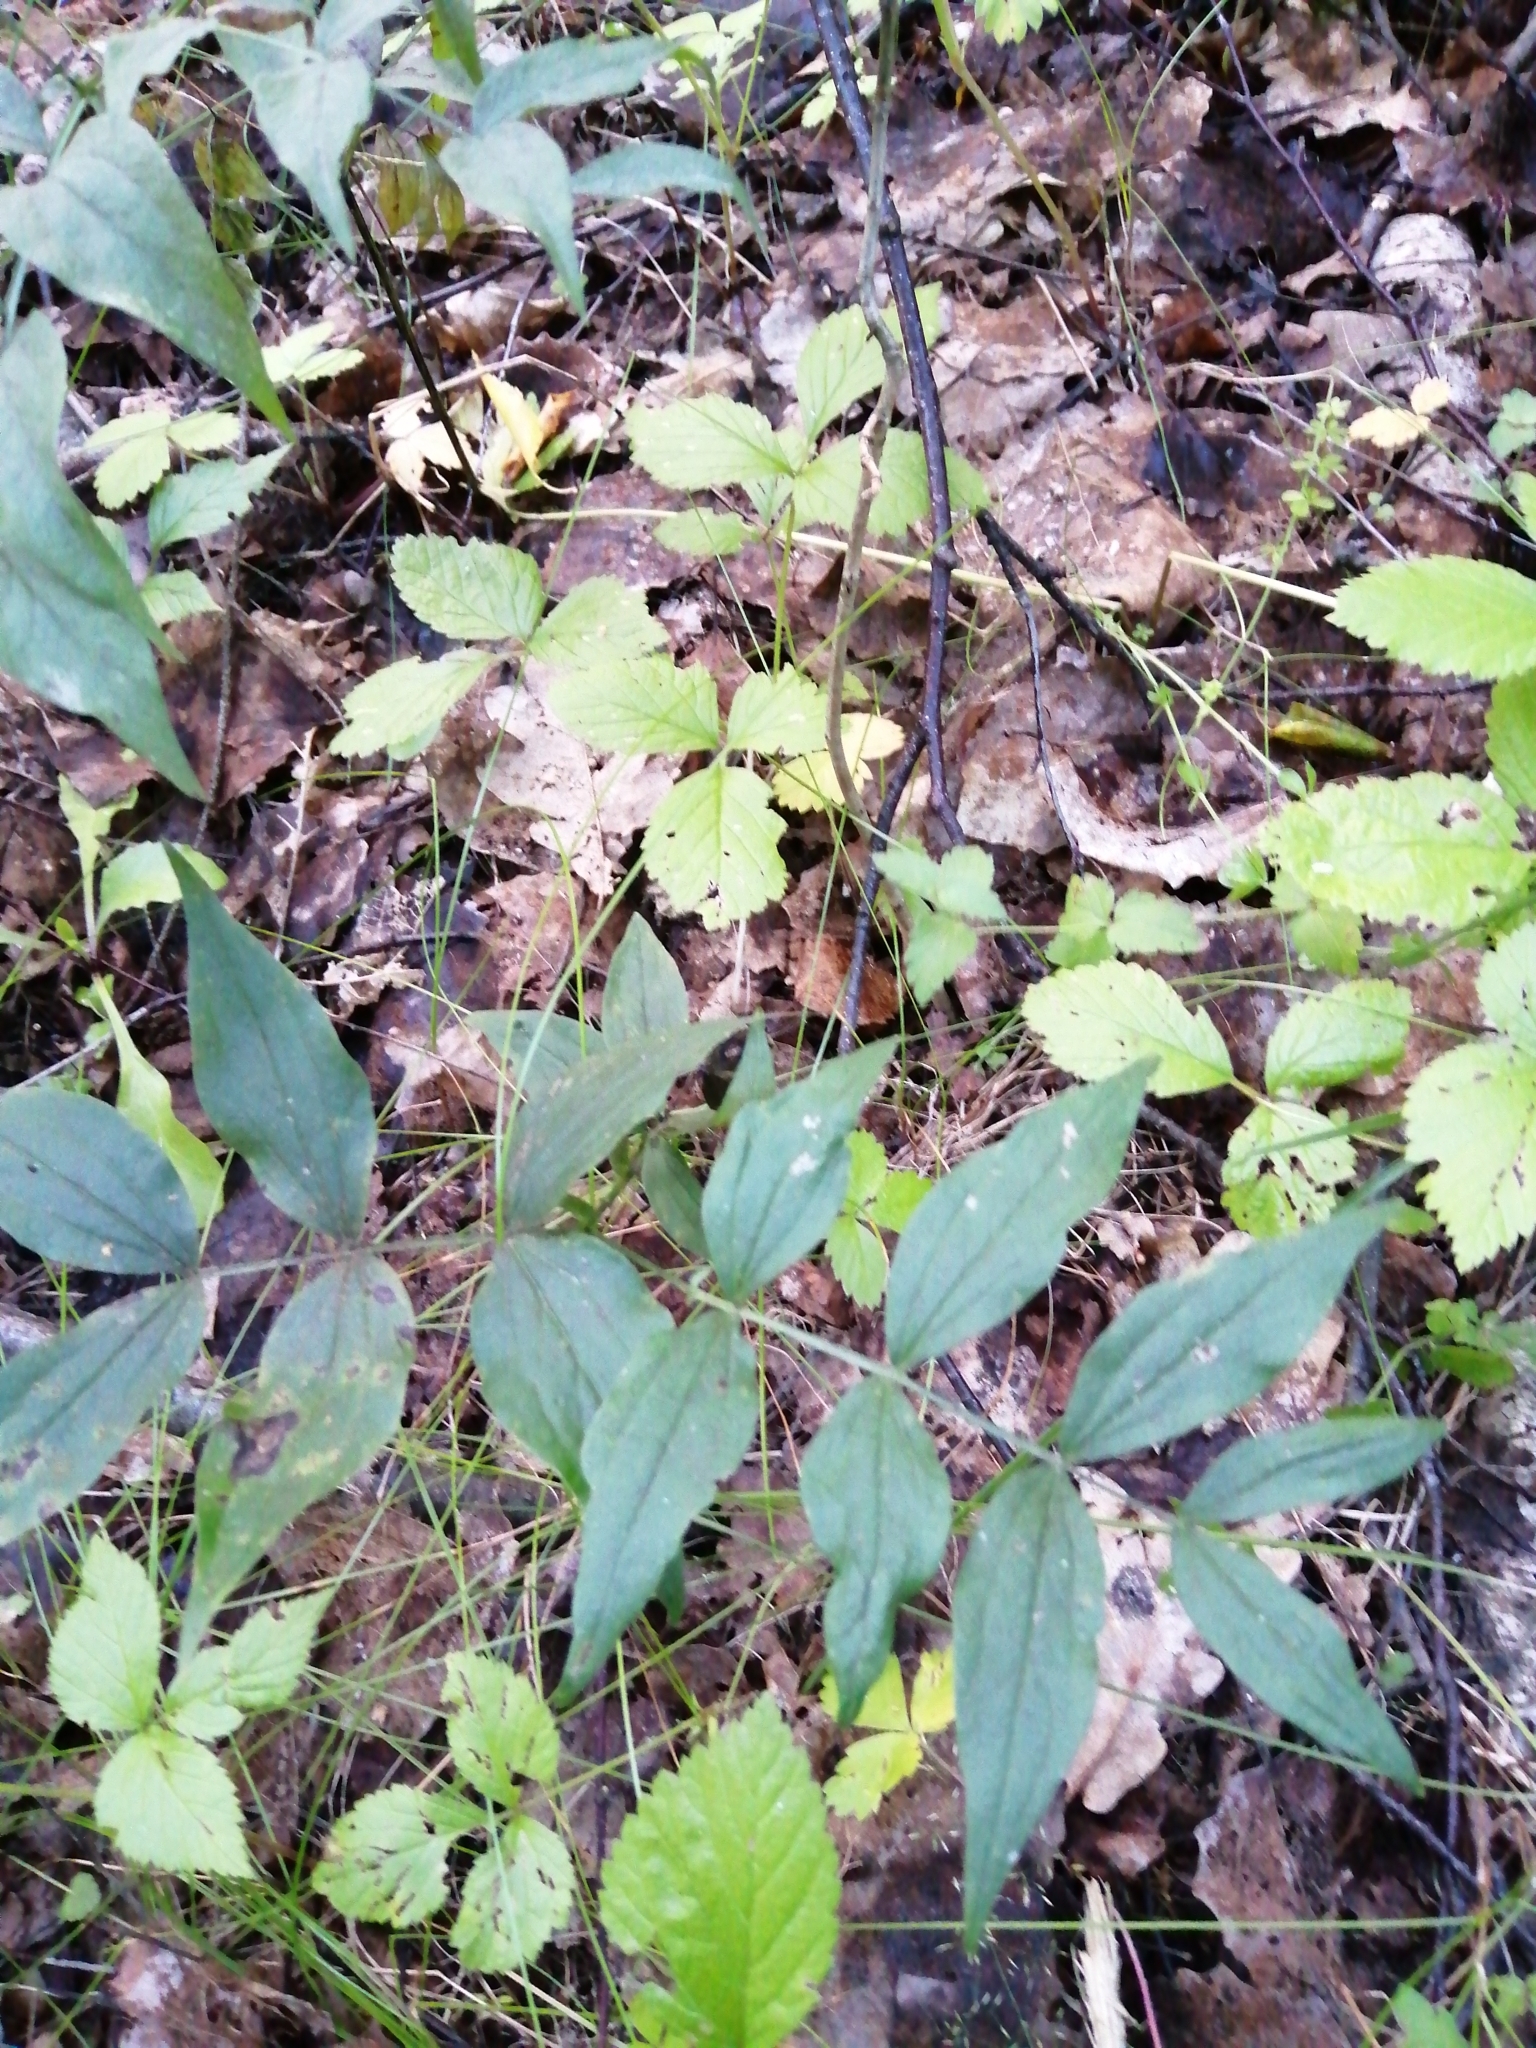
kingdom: Plantae
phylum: Tracheophyta
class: Magnoliopsida
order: Fabales
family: Fabaceae
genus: Lathyrus
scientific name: Lathyrus vernus
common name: Spring pea
